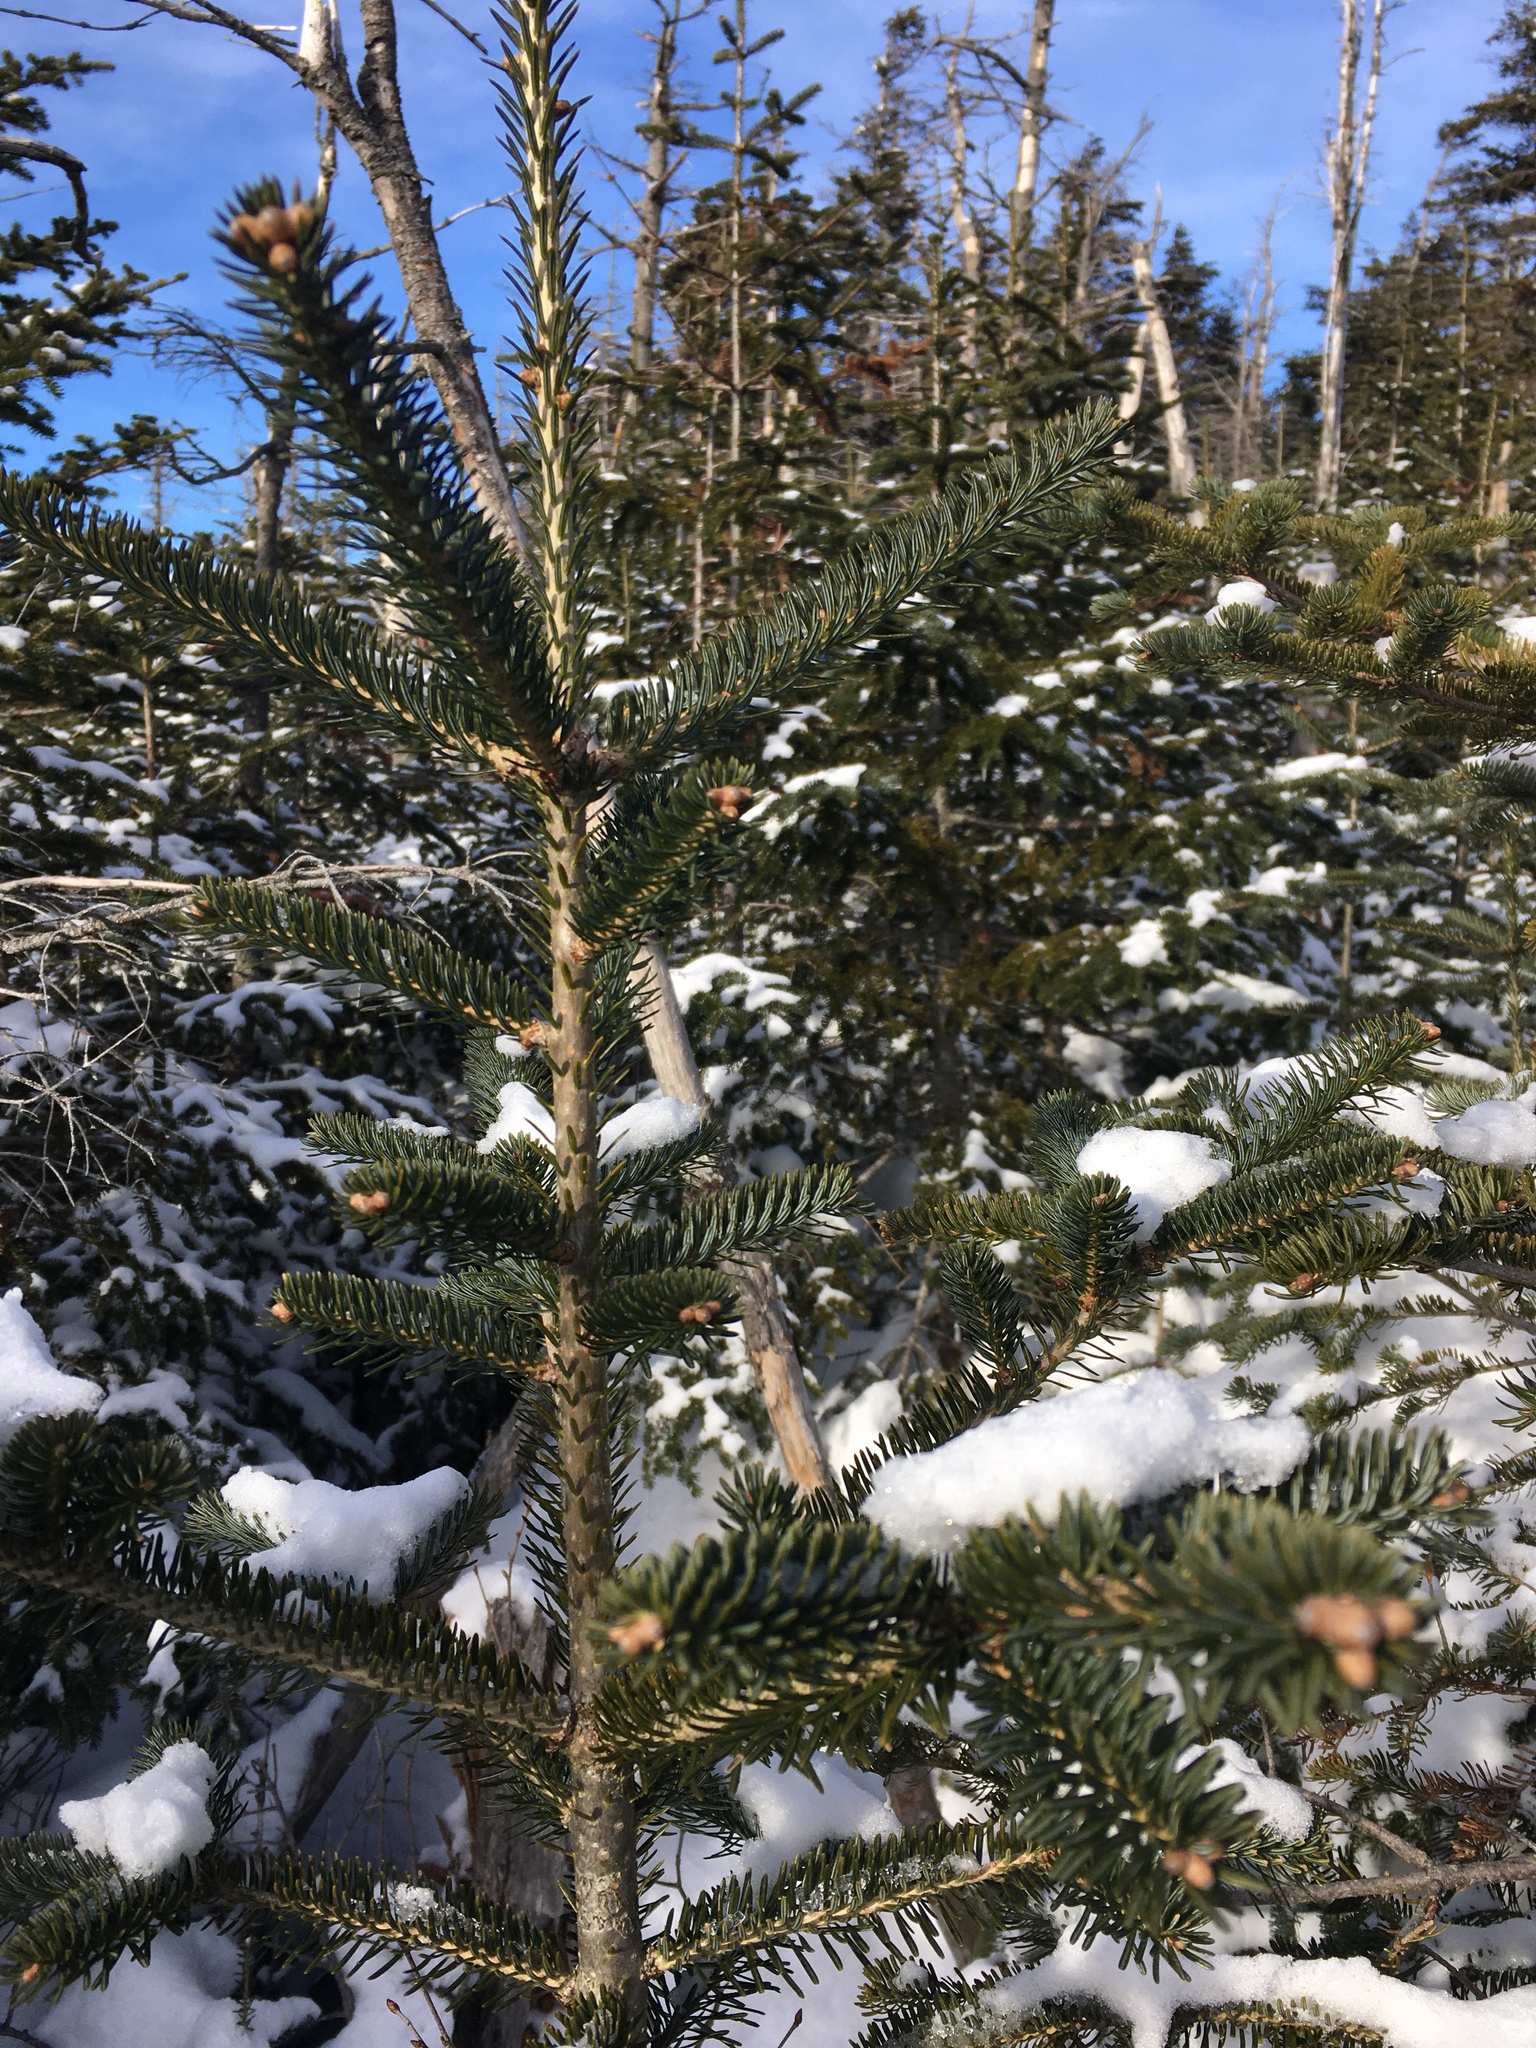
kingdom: Plantae
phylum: Tracheophyta
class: Pinopsida
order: Pinales
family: Pinaceae
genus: Picea
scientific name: Picea glauca
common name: White spruce
